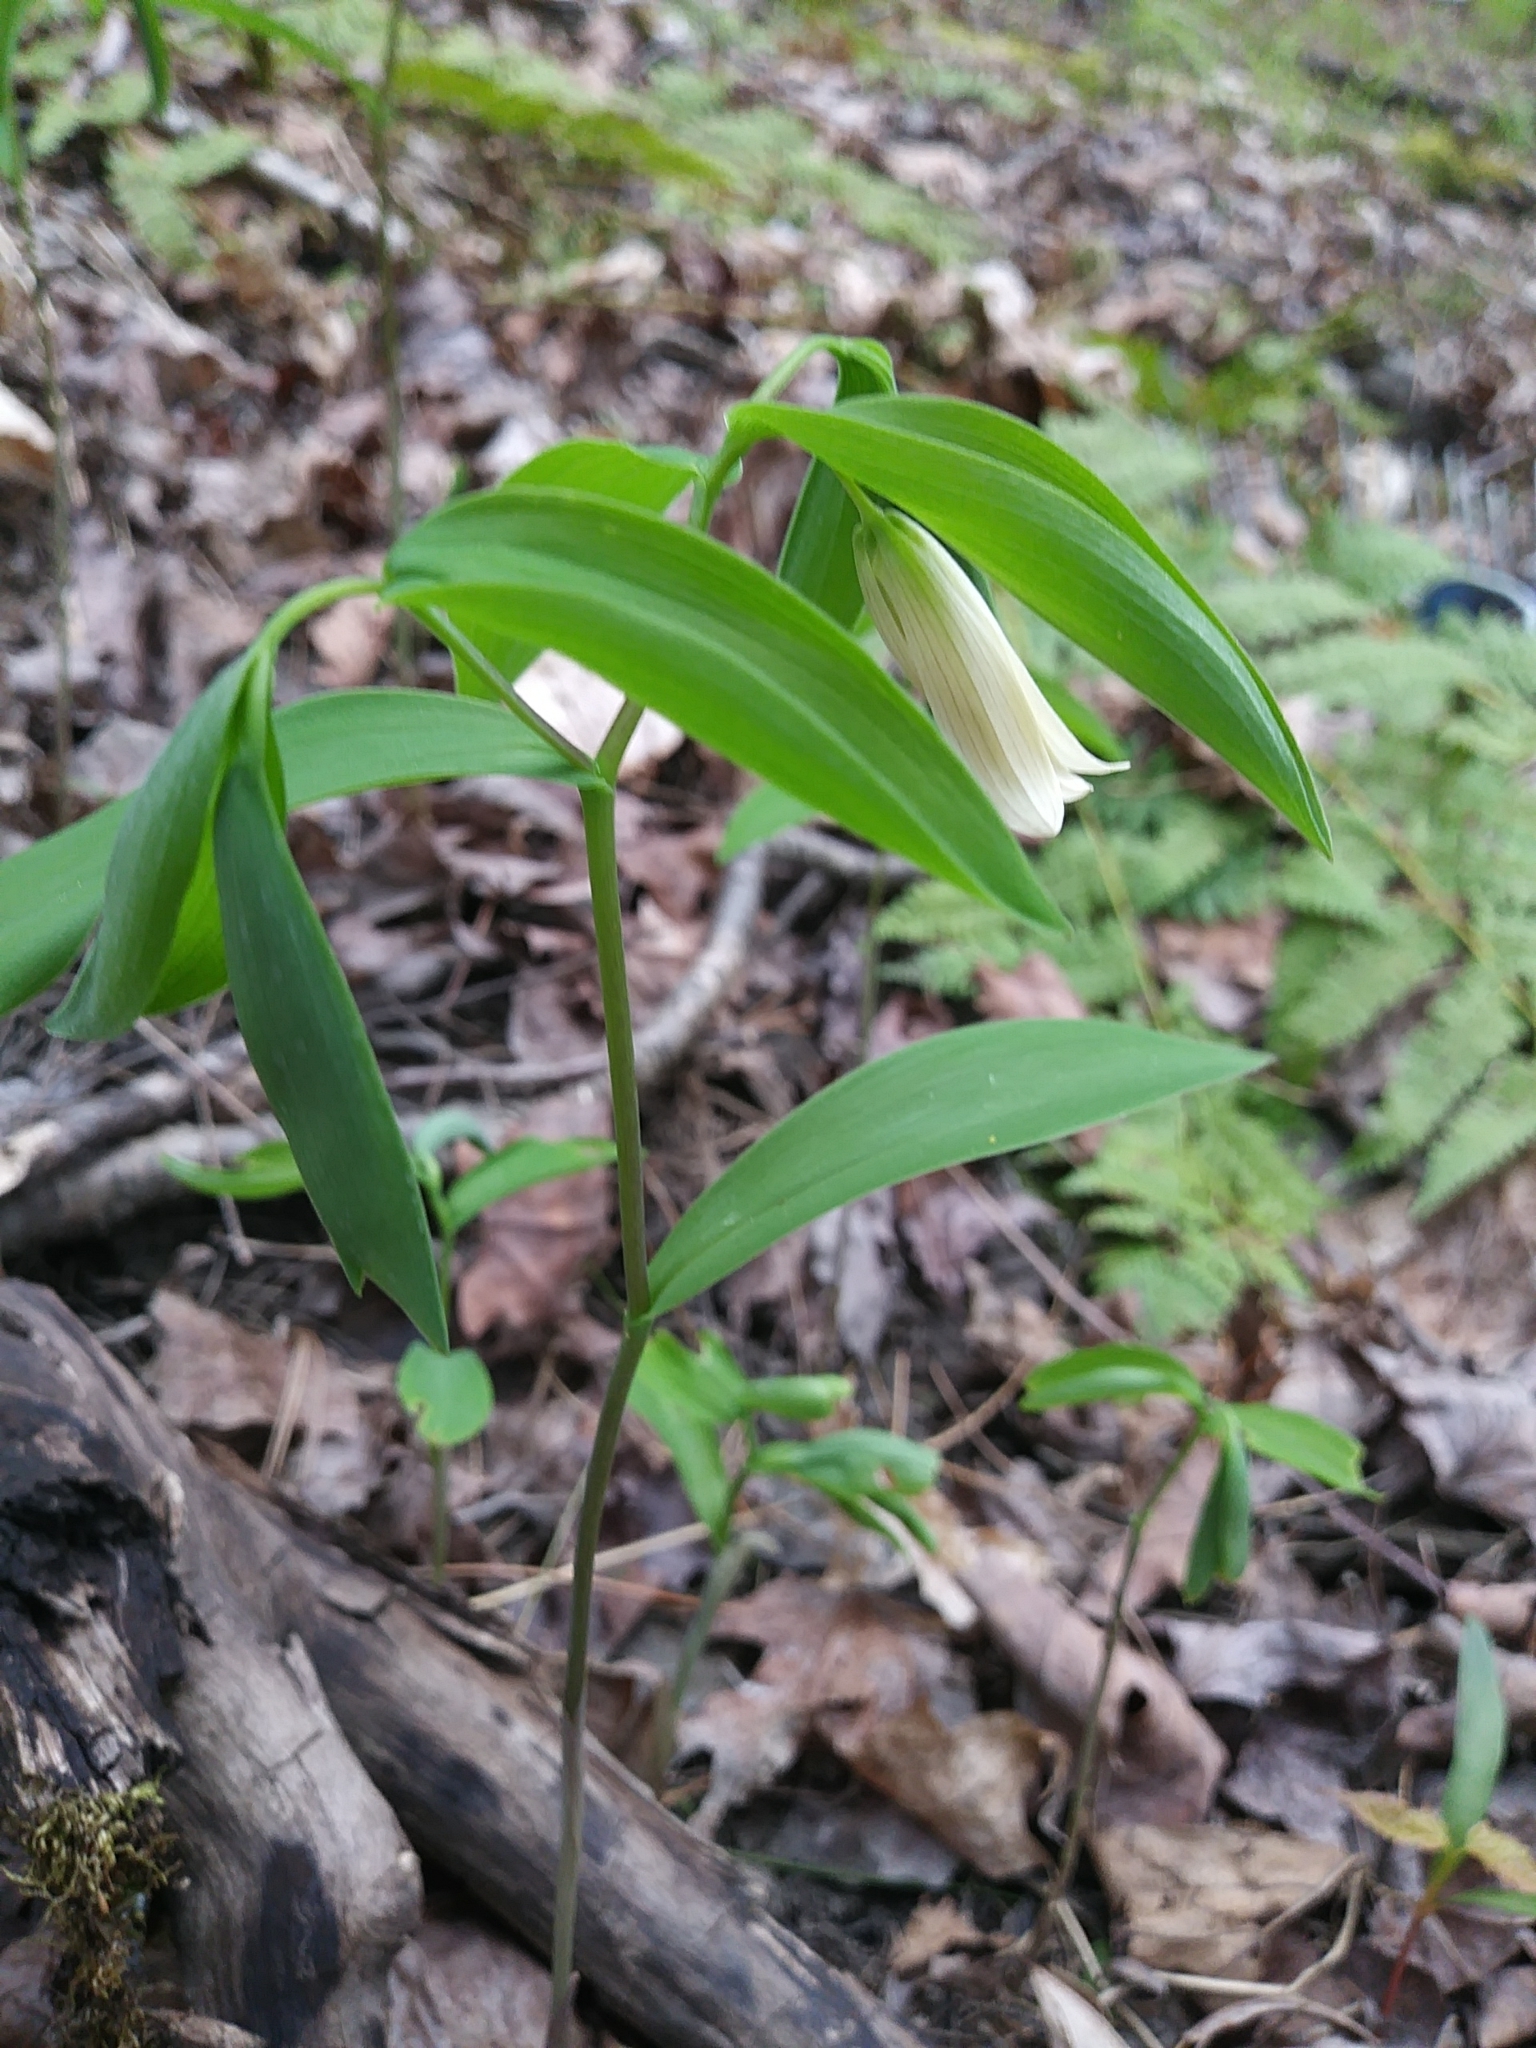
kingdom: Plantae
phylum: Tracheophyta
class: Liliopsida
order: Liliales
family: Colchicaceae
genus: Uvularia
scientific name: Uvularia sessilifolia
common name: Straw-lily
